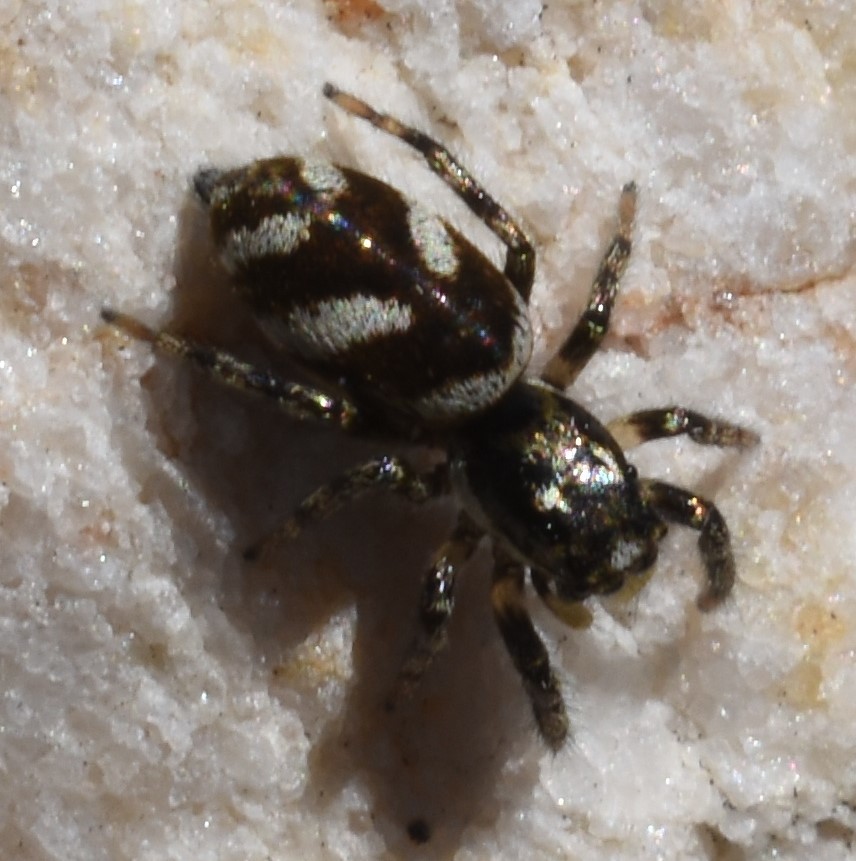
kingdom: Animalia
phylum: Arthropoda
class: Arachnida
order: Araneae
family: Salticidae
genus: Salticus
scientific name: Salticus scenicus
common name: Zebra jumper
